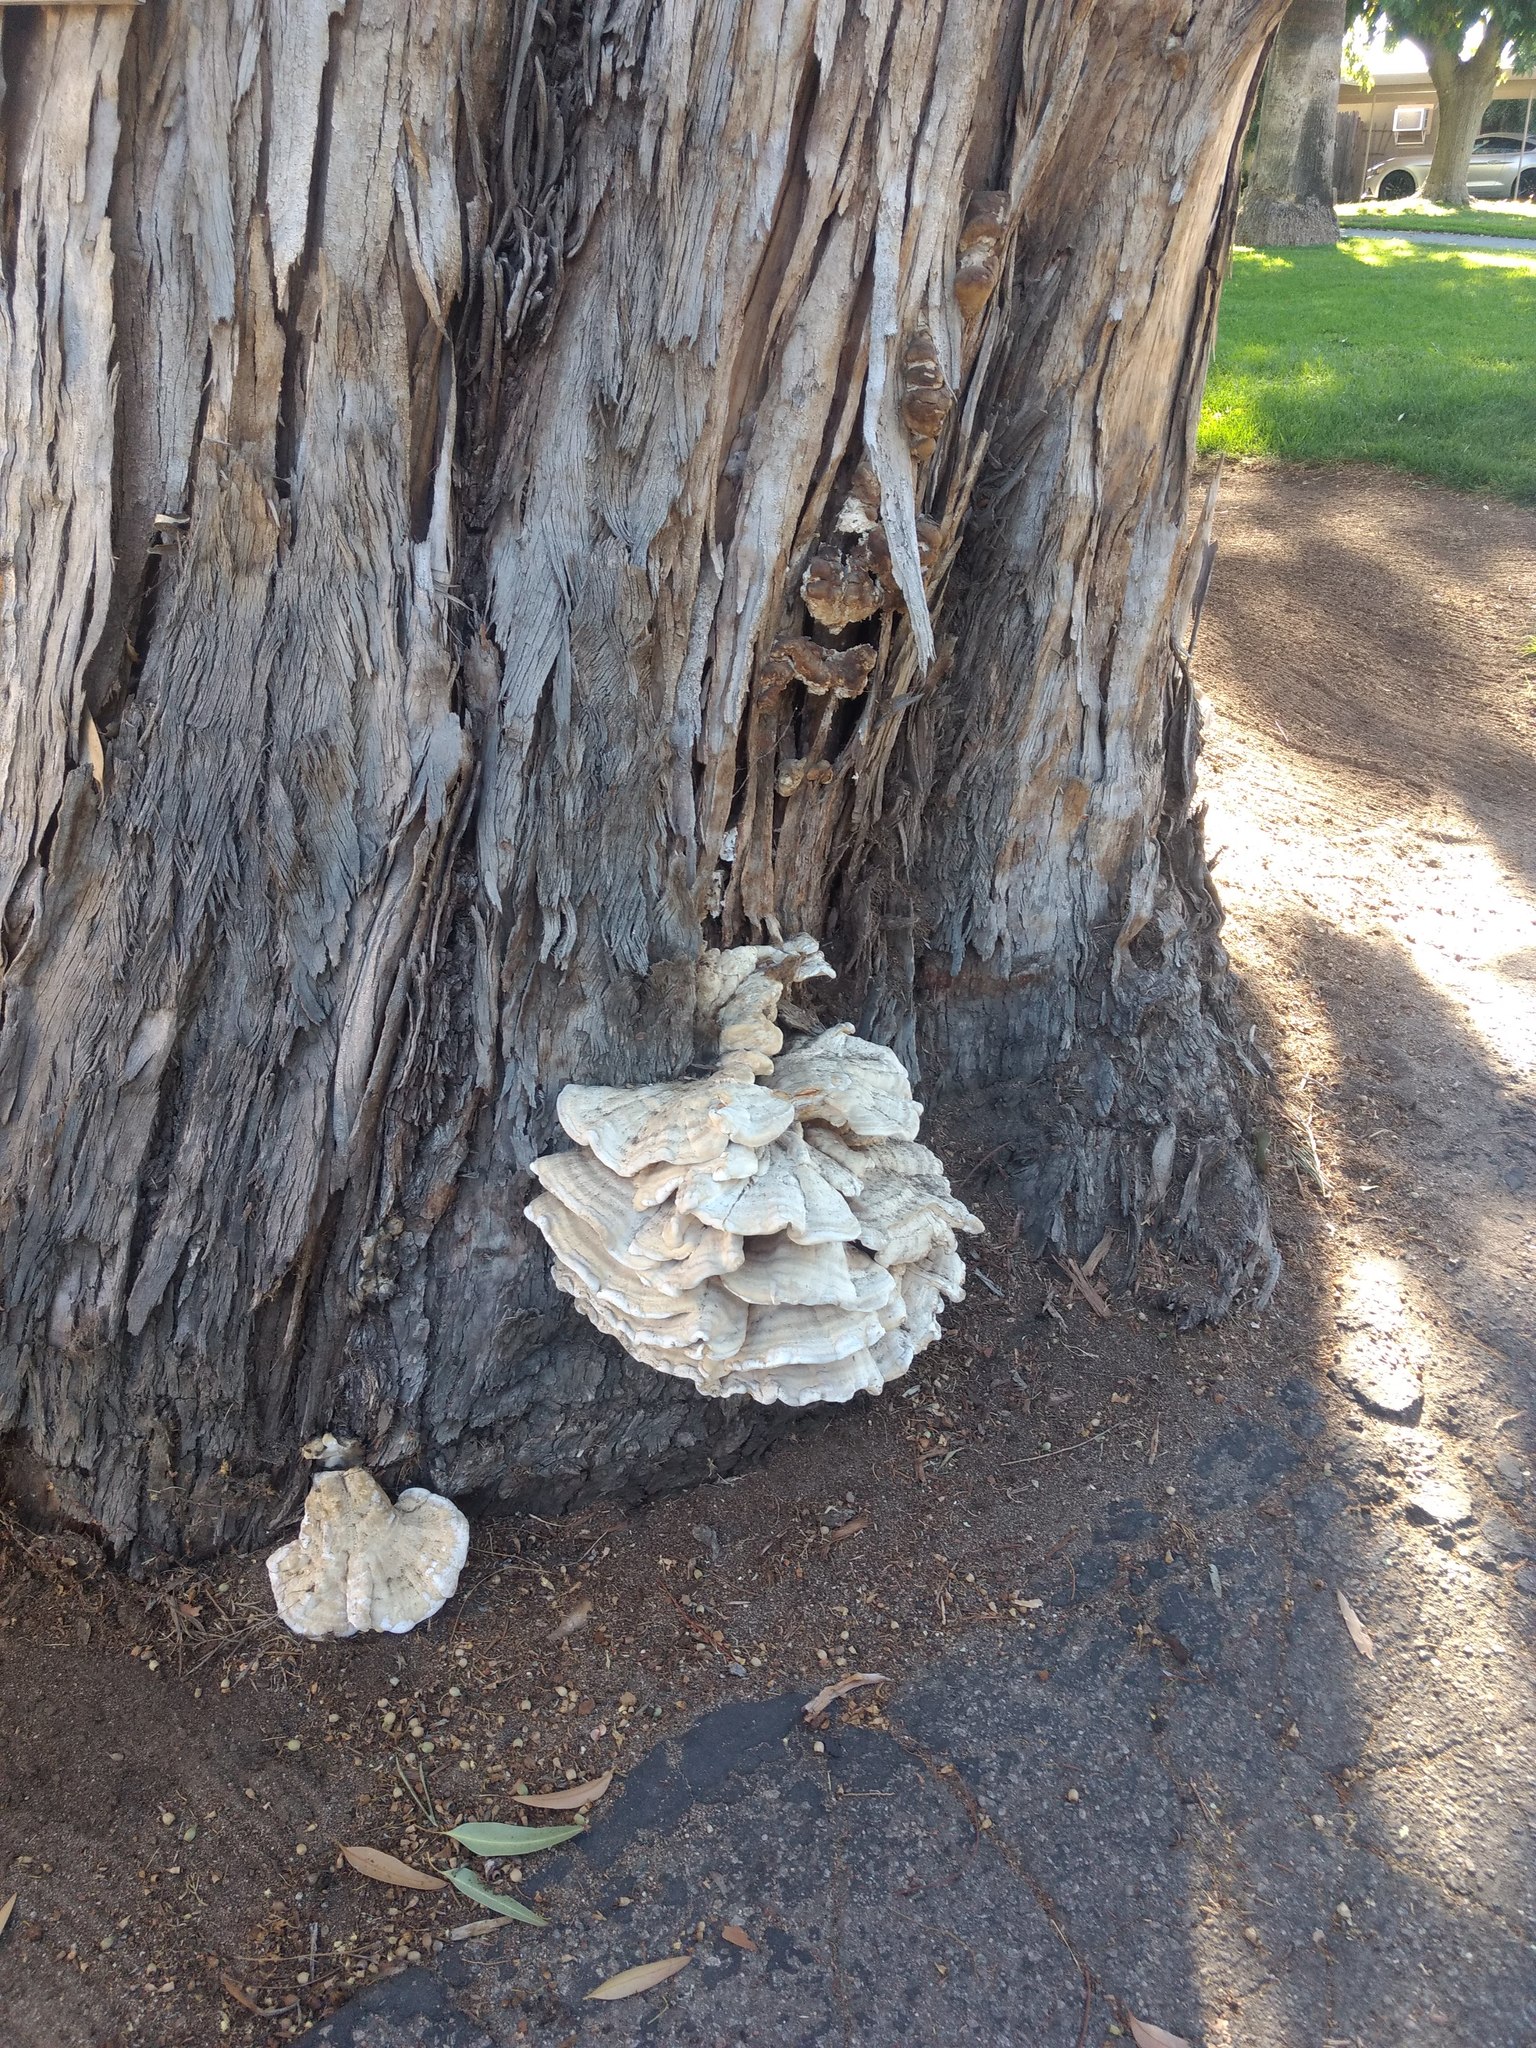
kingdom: Fungi
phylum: Basidiomycota
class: Agaricomycetes
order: Polyporales
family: Laetiporaceae
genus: Laetiporus
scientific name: Laetiporus gilbertsonii
